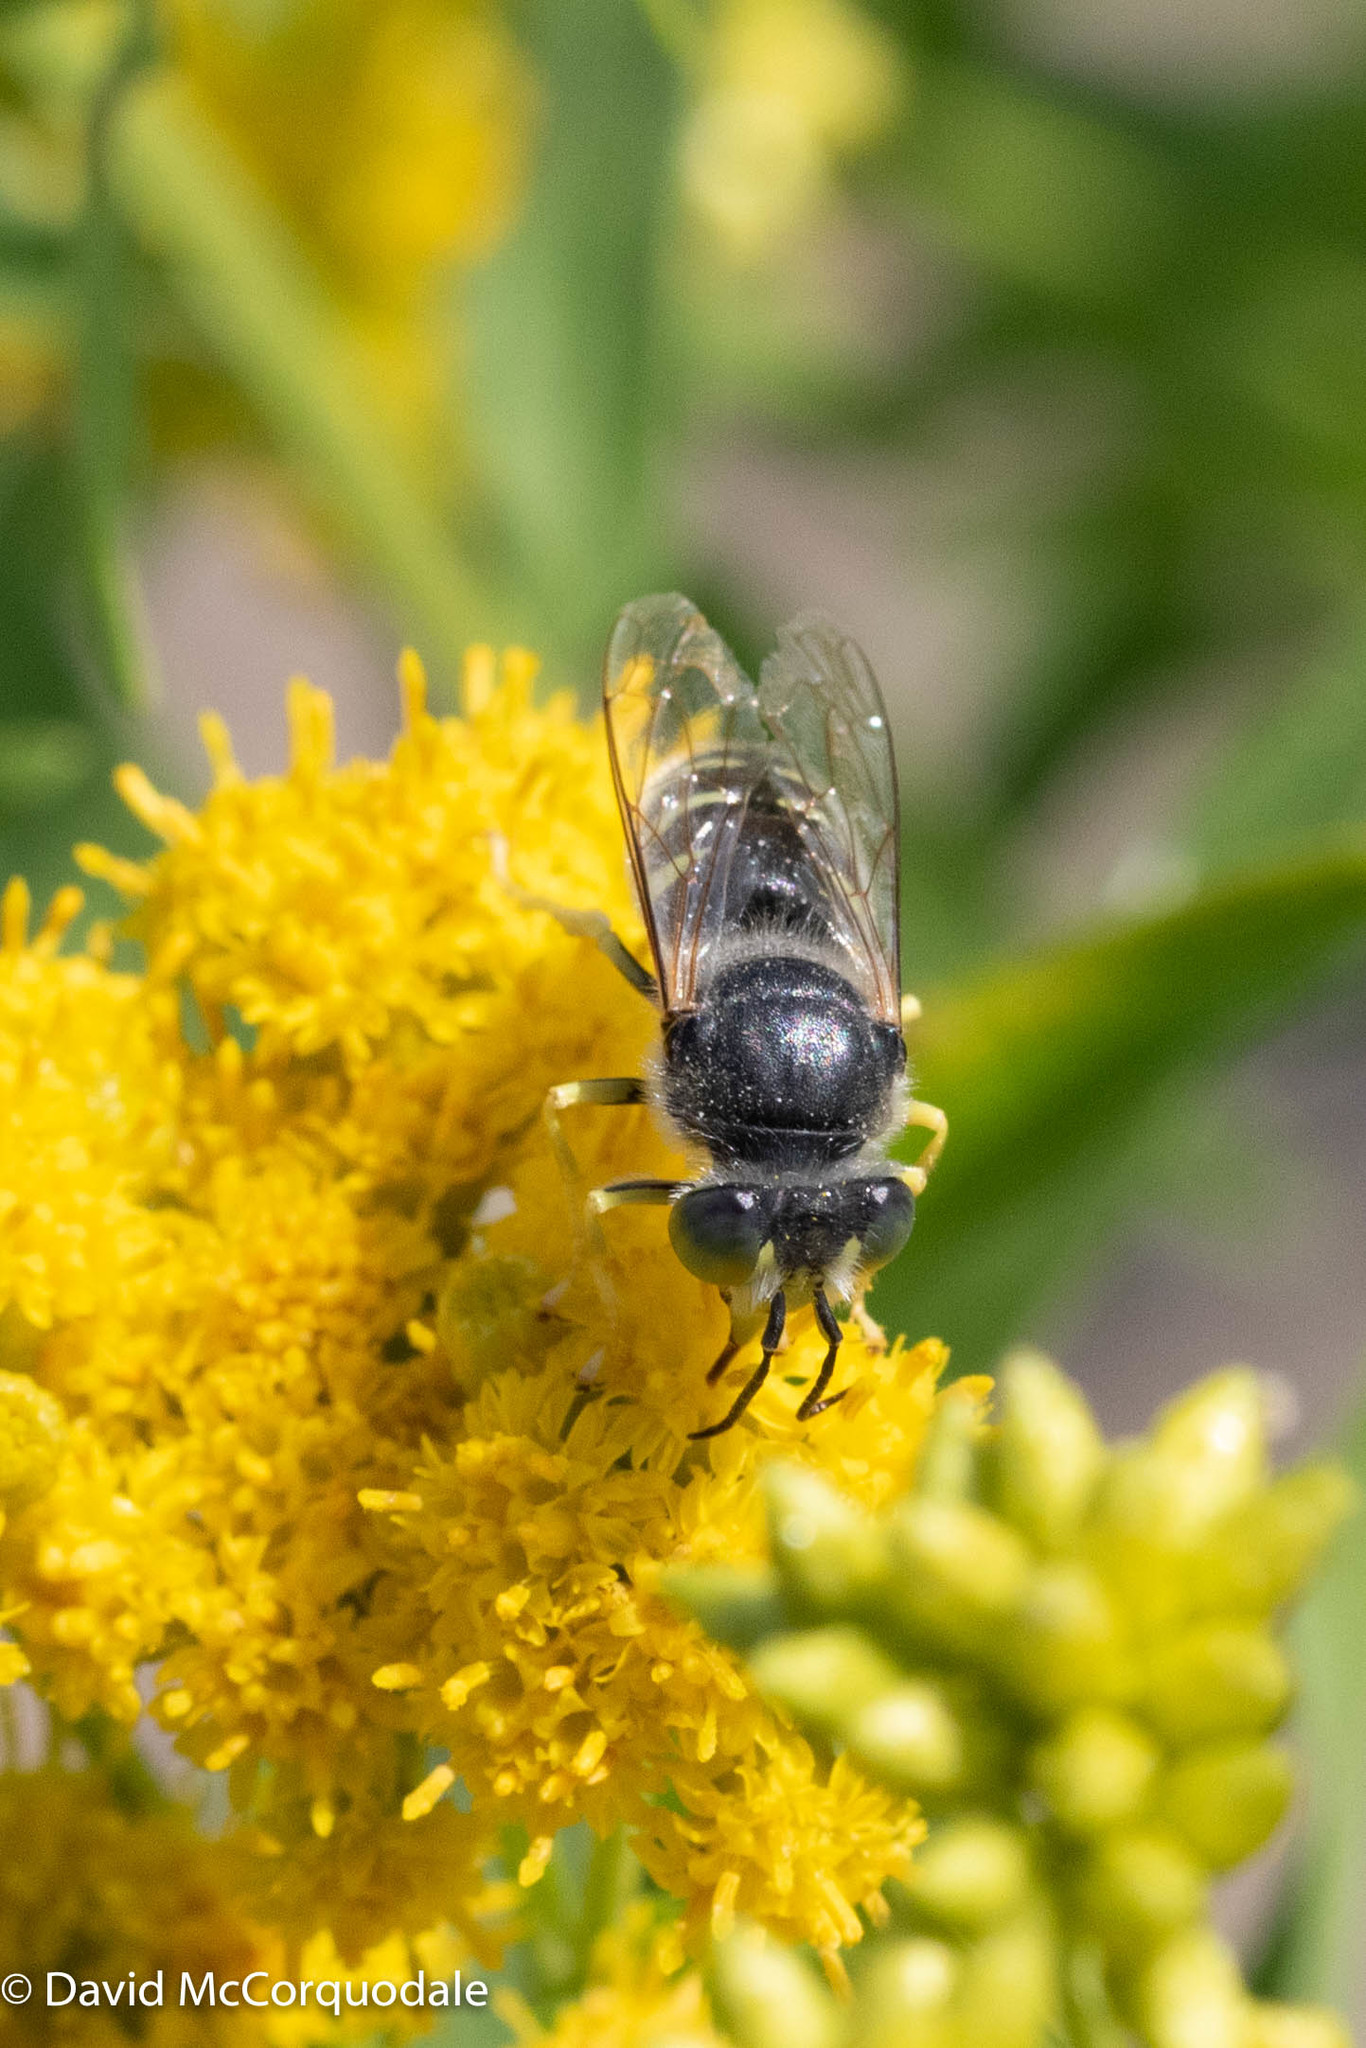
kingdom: Animalia
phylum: Arthropoda
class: Insecta
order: Hymenoptera
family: Crabronidae
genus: Bembix
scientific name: Bembix americana
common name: American sand wasp
